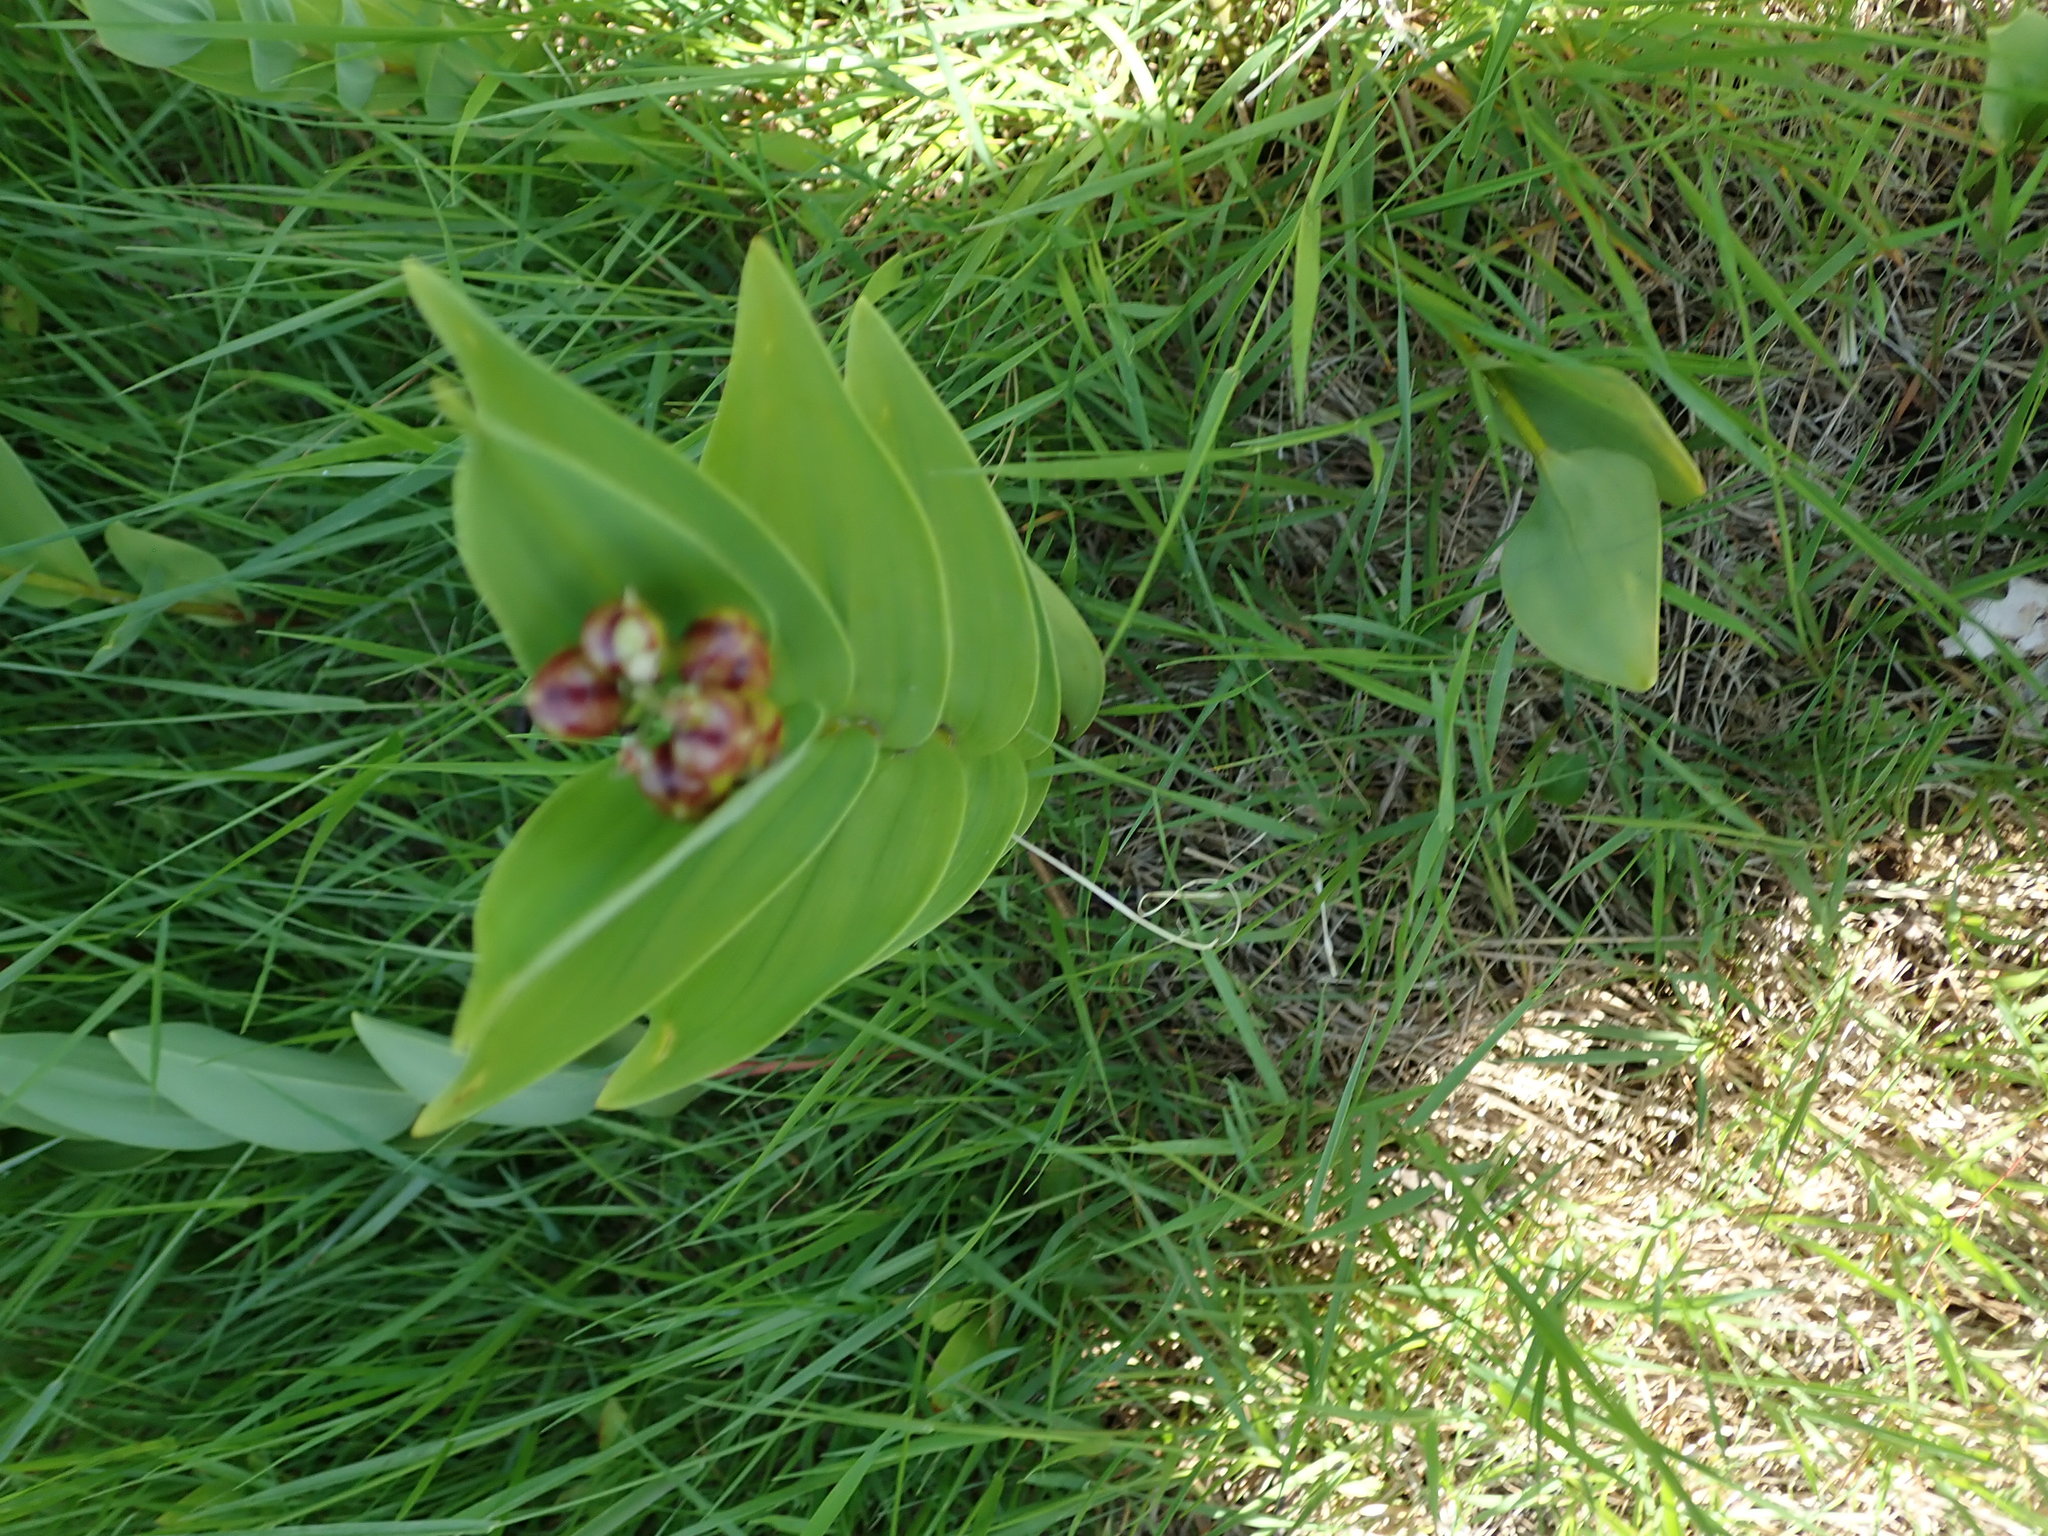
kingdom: Plantae
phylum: Tracheophyta
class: Liliopsida
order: Asparagales
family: Asparagaceae
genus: Maianthemum
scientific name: Maianthemum stellatum
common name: Little false solomon's seal
